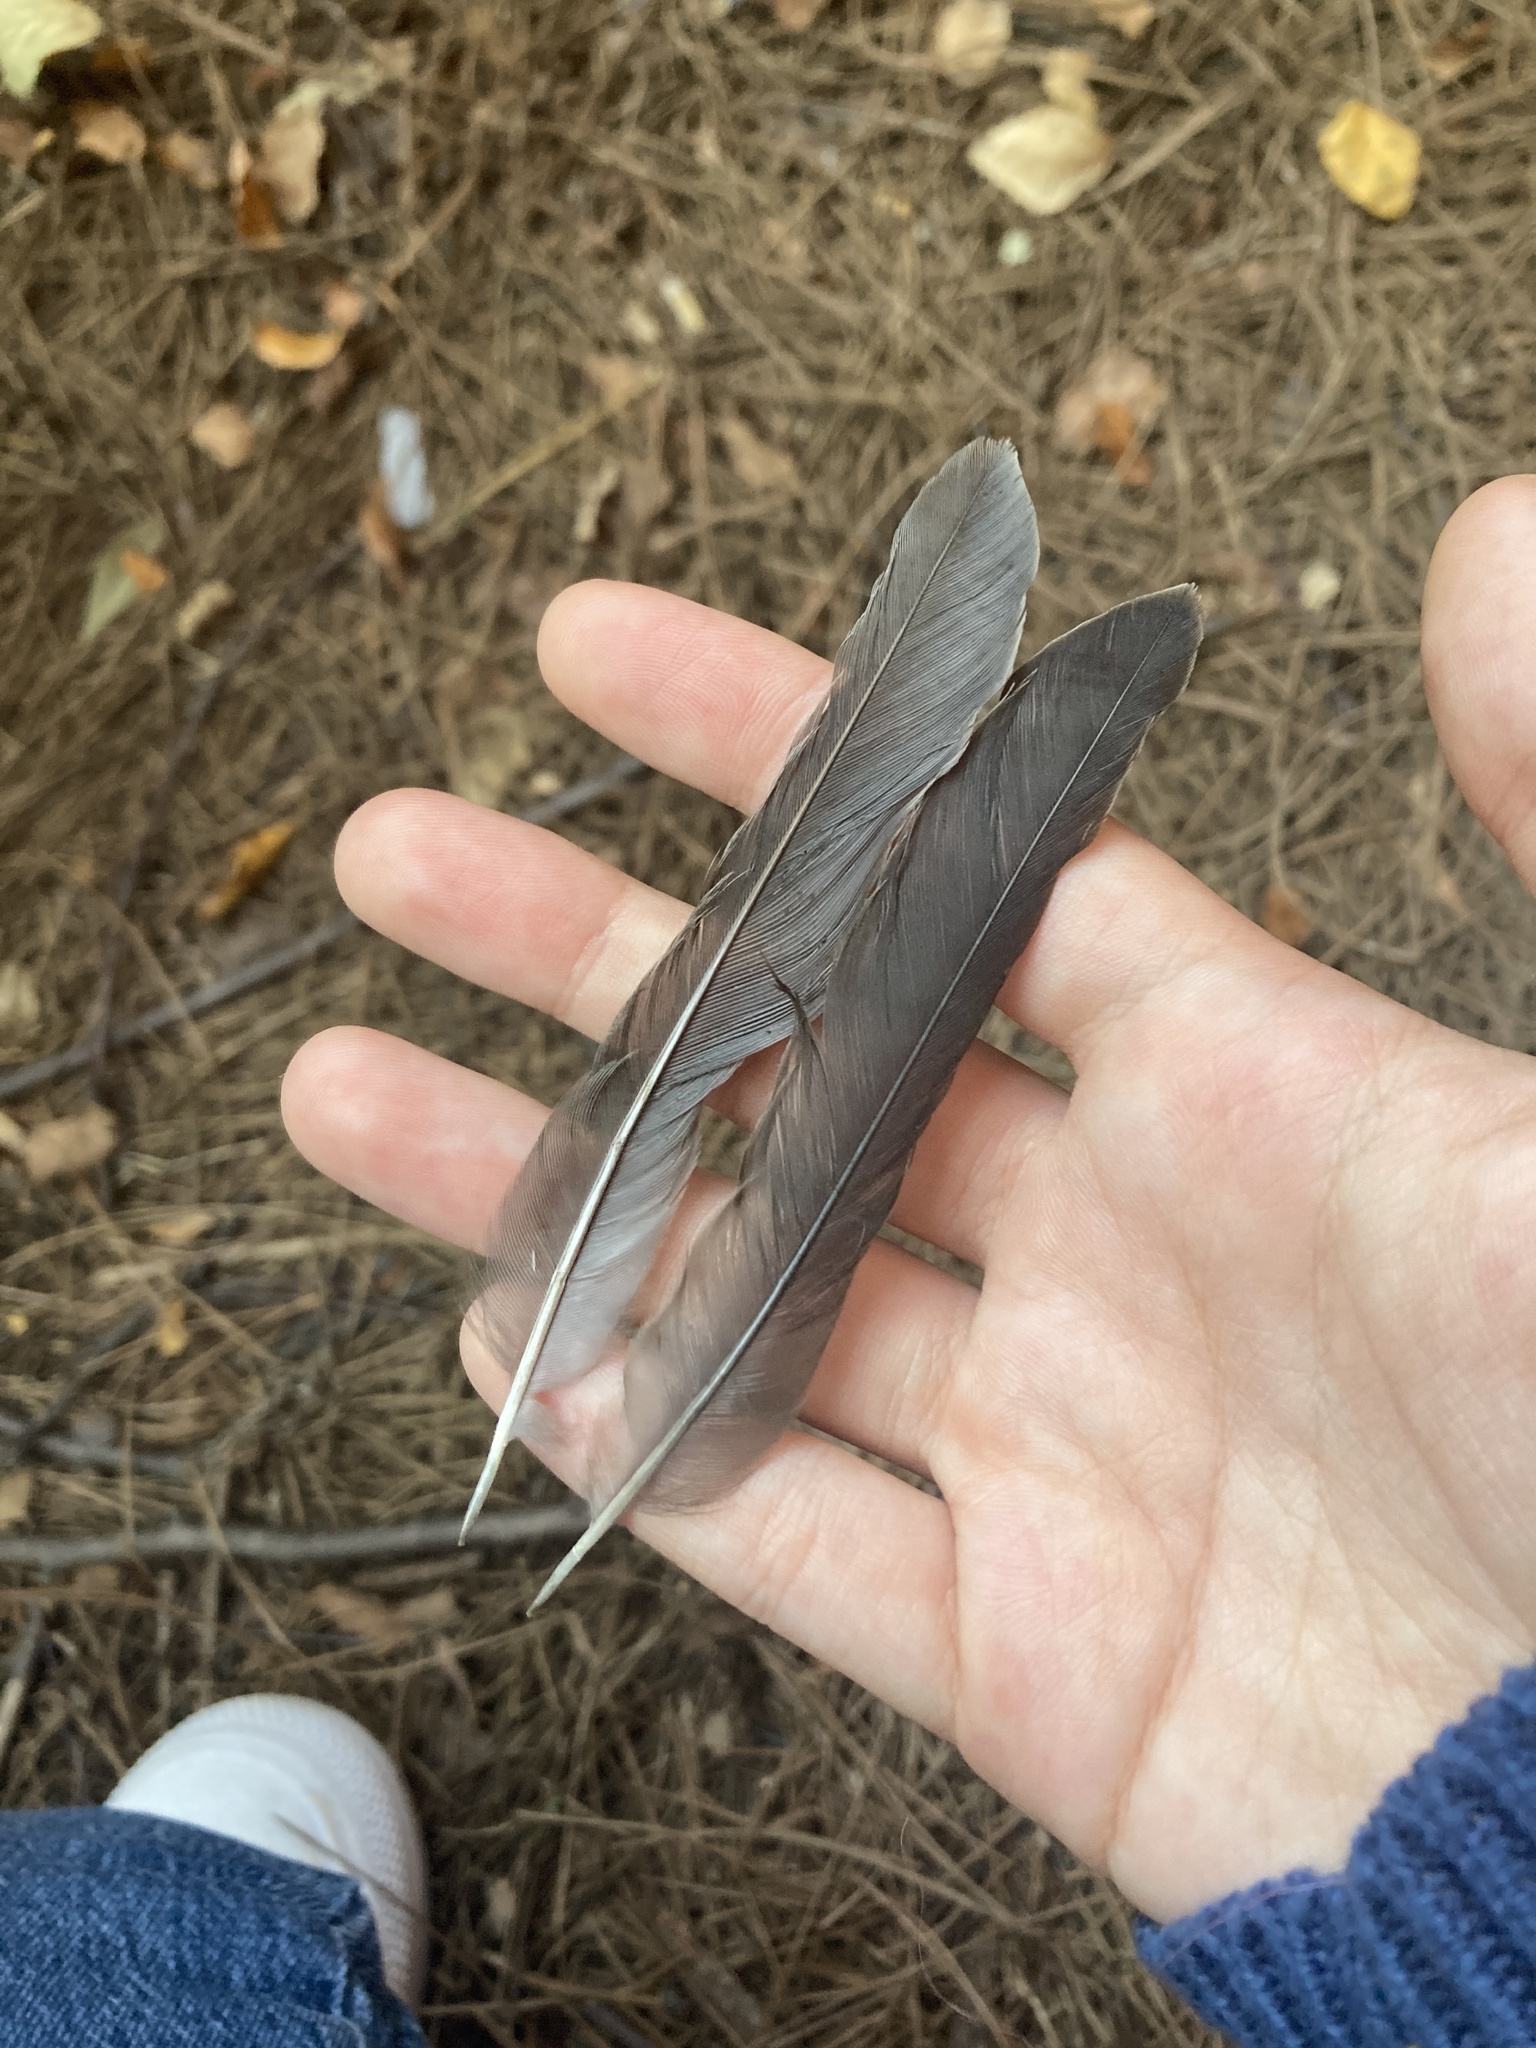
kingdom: Animalia
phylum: Chordata
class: Aves
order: Passeriformes
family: Turdidae
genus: Turdus
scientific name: Turdus migratorius
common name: American robin
